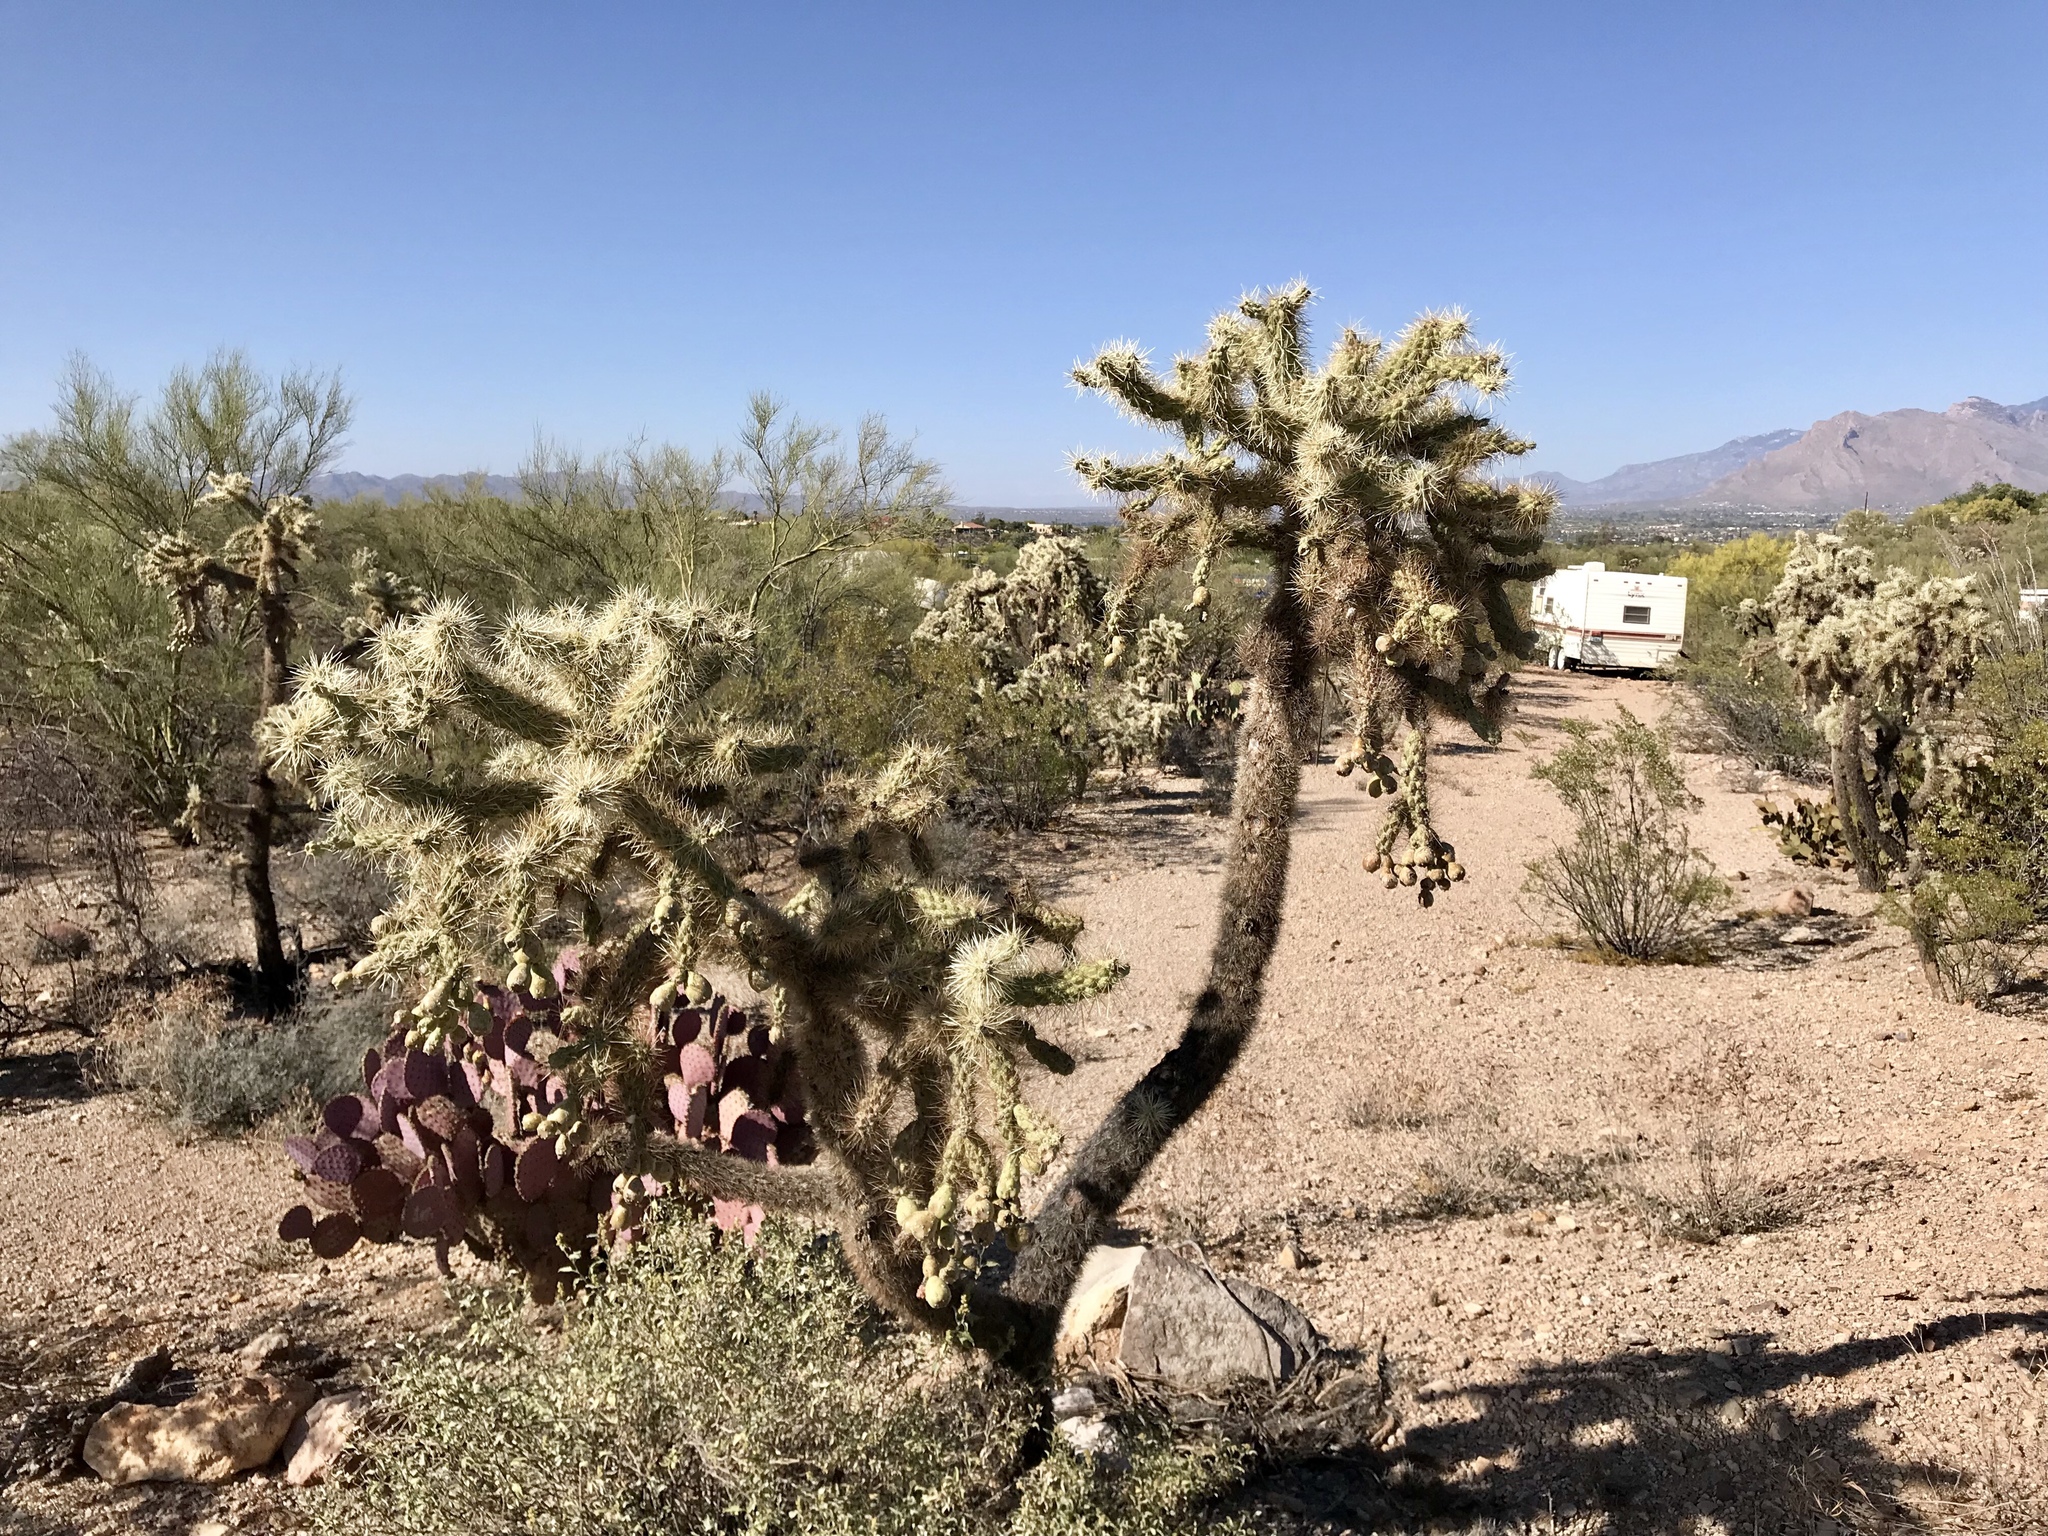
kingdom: Plantae
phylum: Tracheophyta
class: Magnoliopsida
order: Caryophyllales
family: Cactaceae
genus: Cylindropuntia
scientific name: Cylindropuntia fulgida
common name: Jumping cholla
